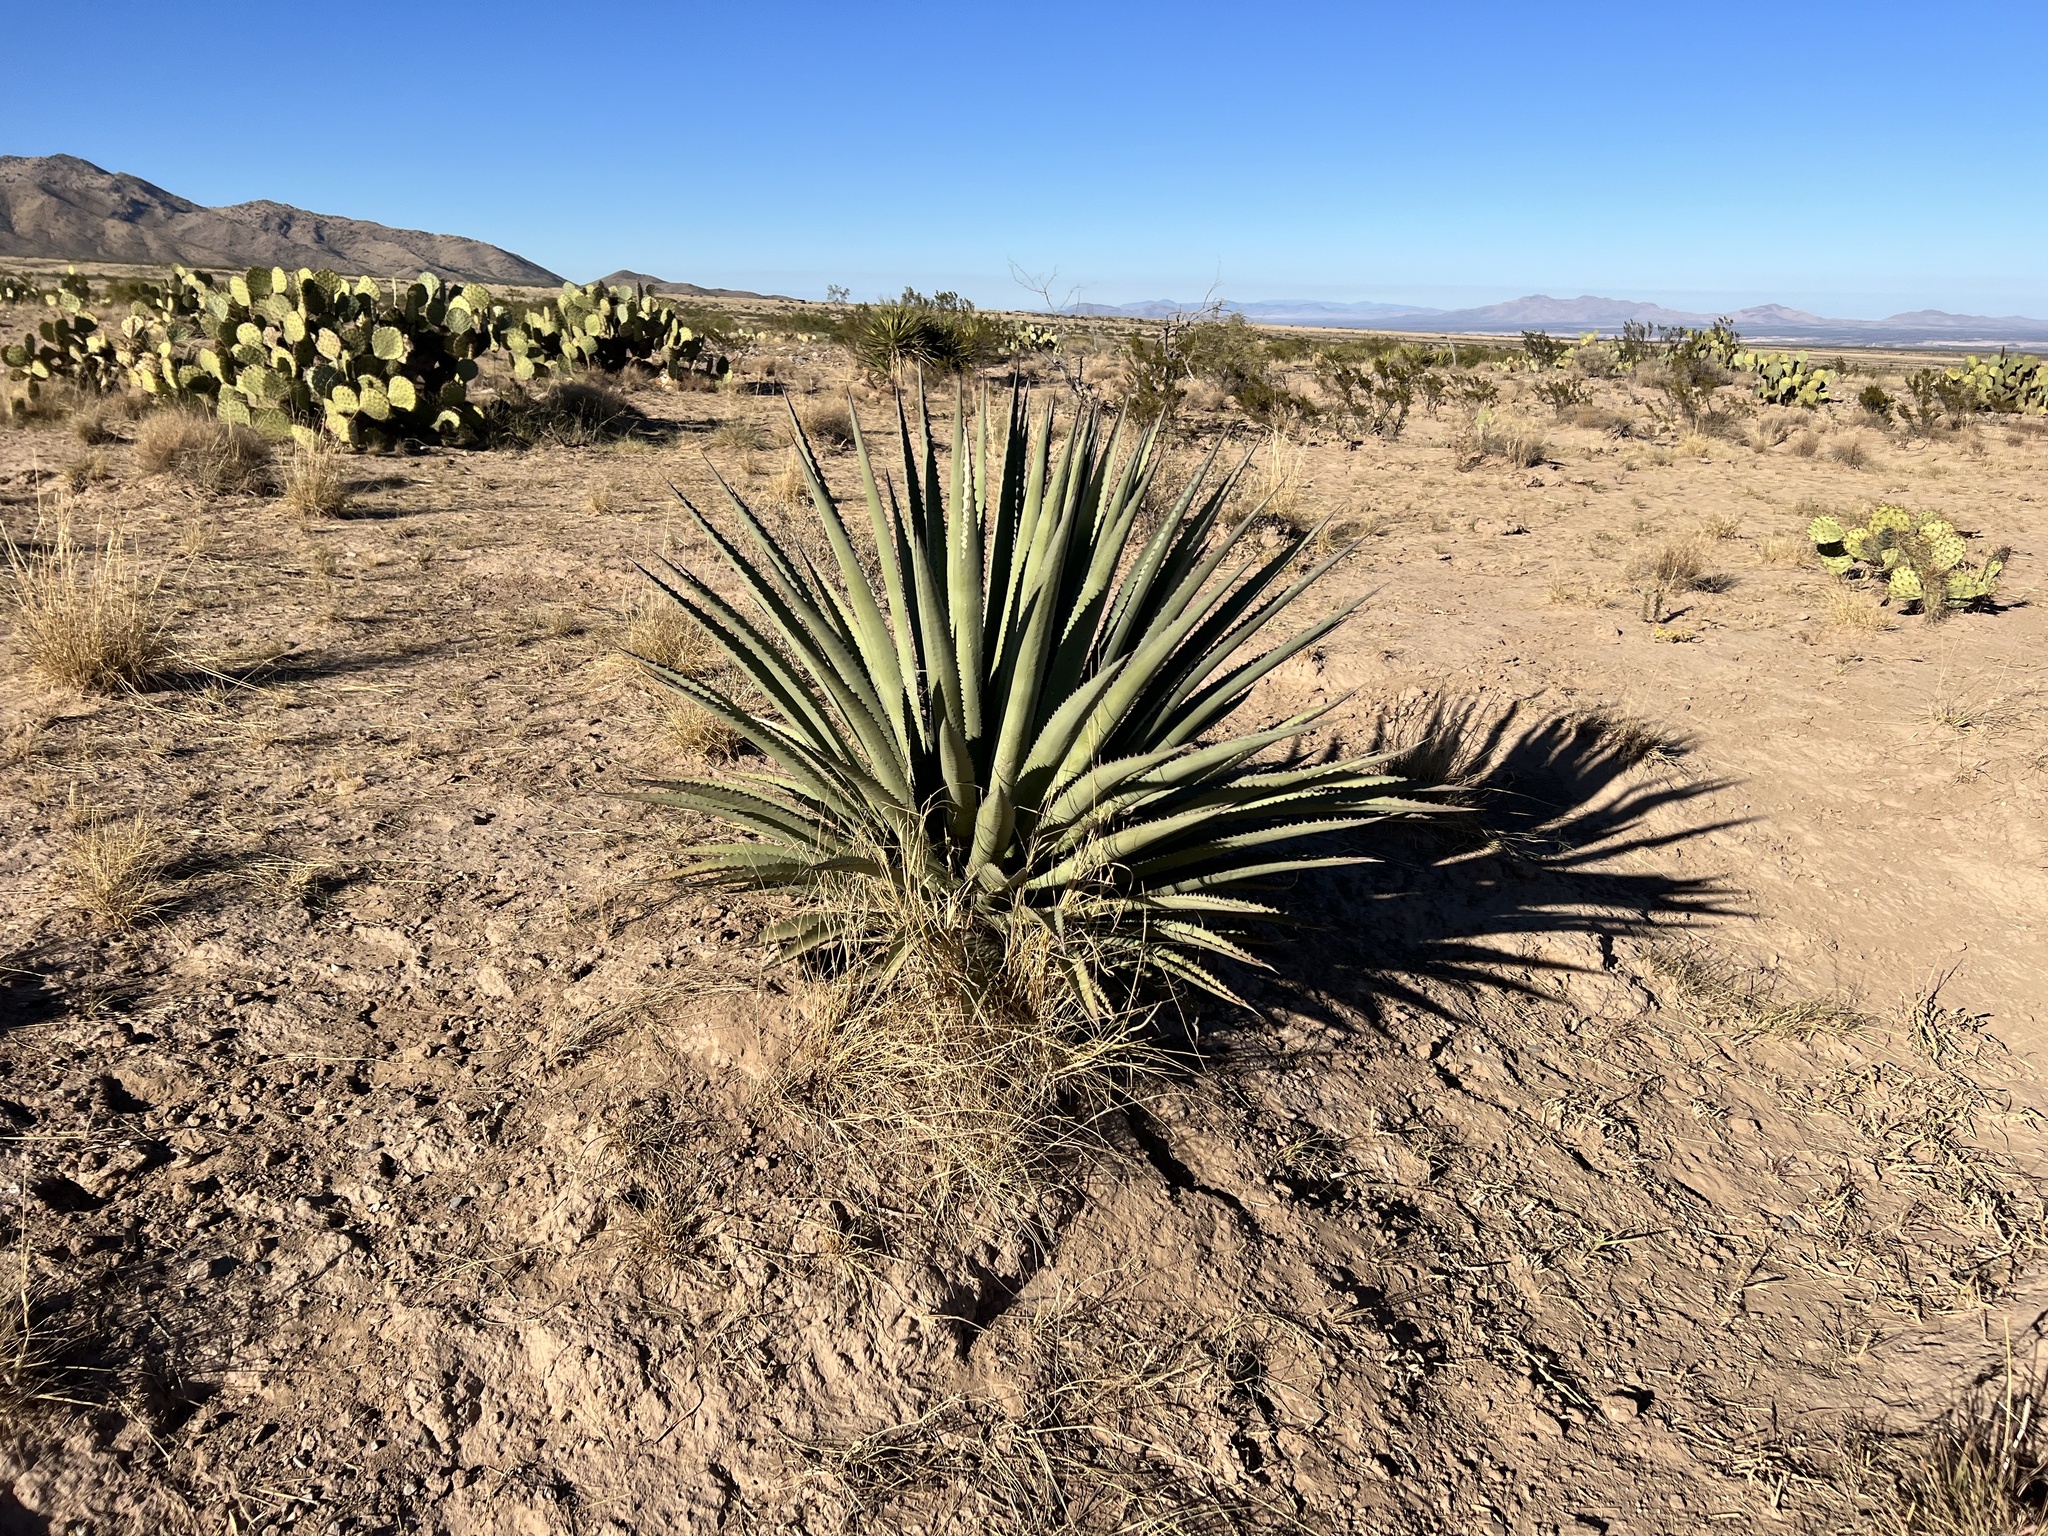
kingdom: Plantae
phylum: Tracheophyta
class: Liliopsida
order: Asparagales
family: Asparagaceae
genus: Agave
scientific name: Agave palmeri
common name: Palmer agave
